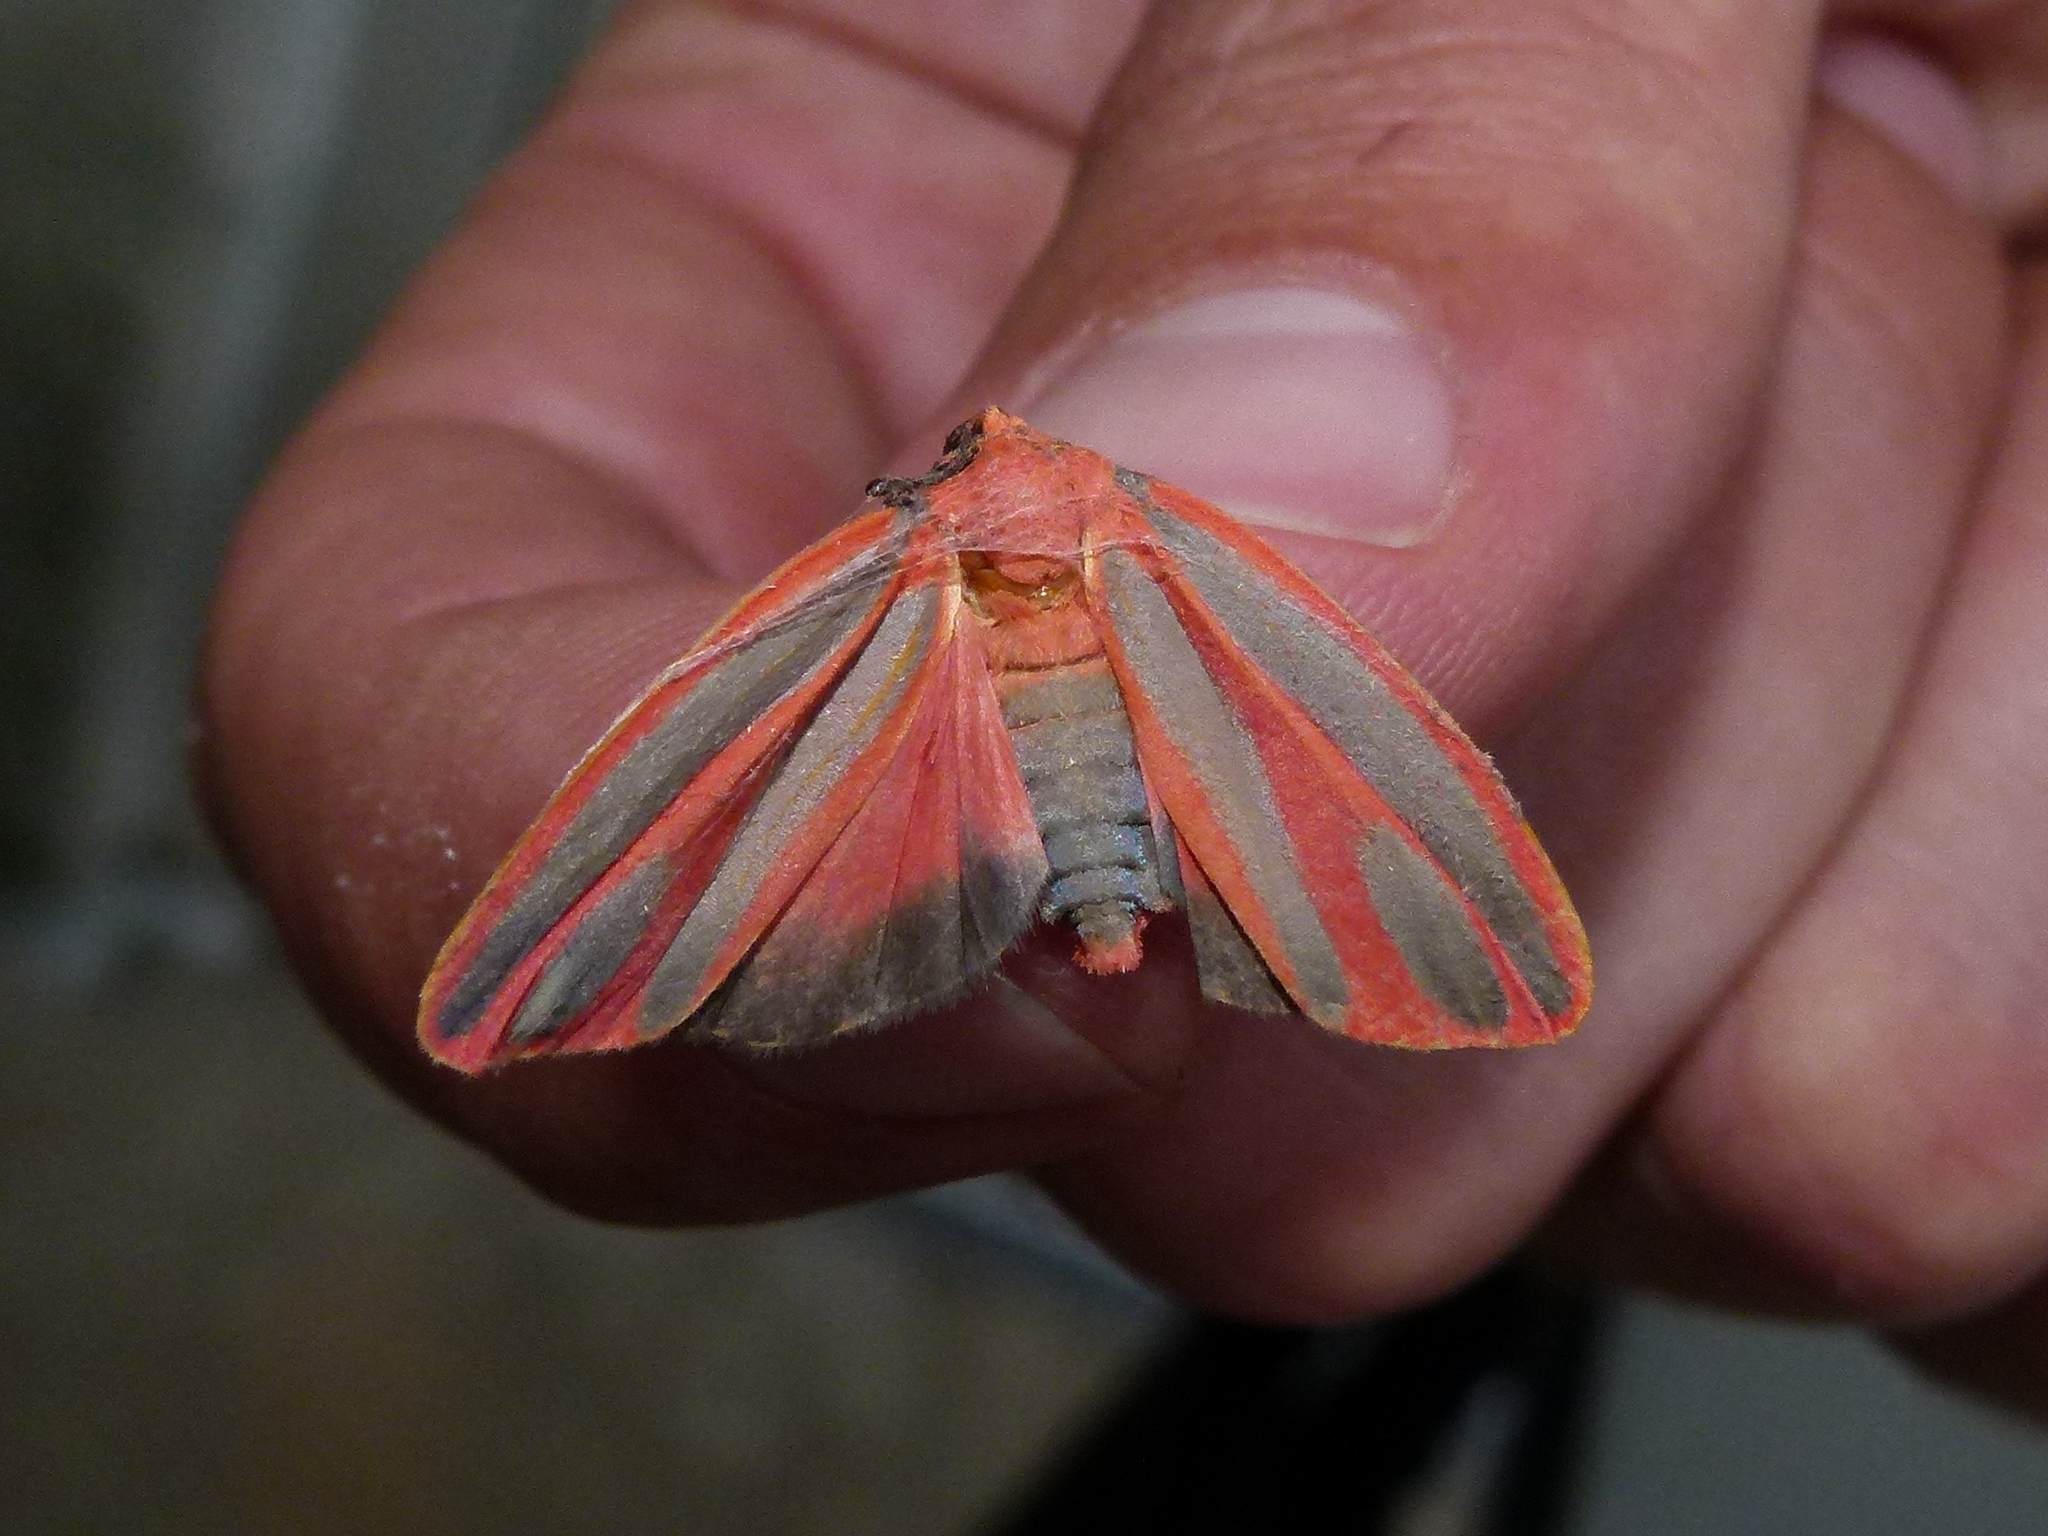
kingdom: Animalia
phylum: Arthropoda
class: Insecta
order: Lepidoptera
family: Erebidae
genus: Hypoprepia
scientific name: Hypoprepia miniata
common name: Scarlet-winged lichen moth
